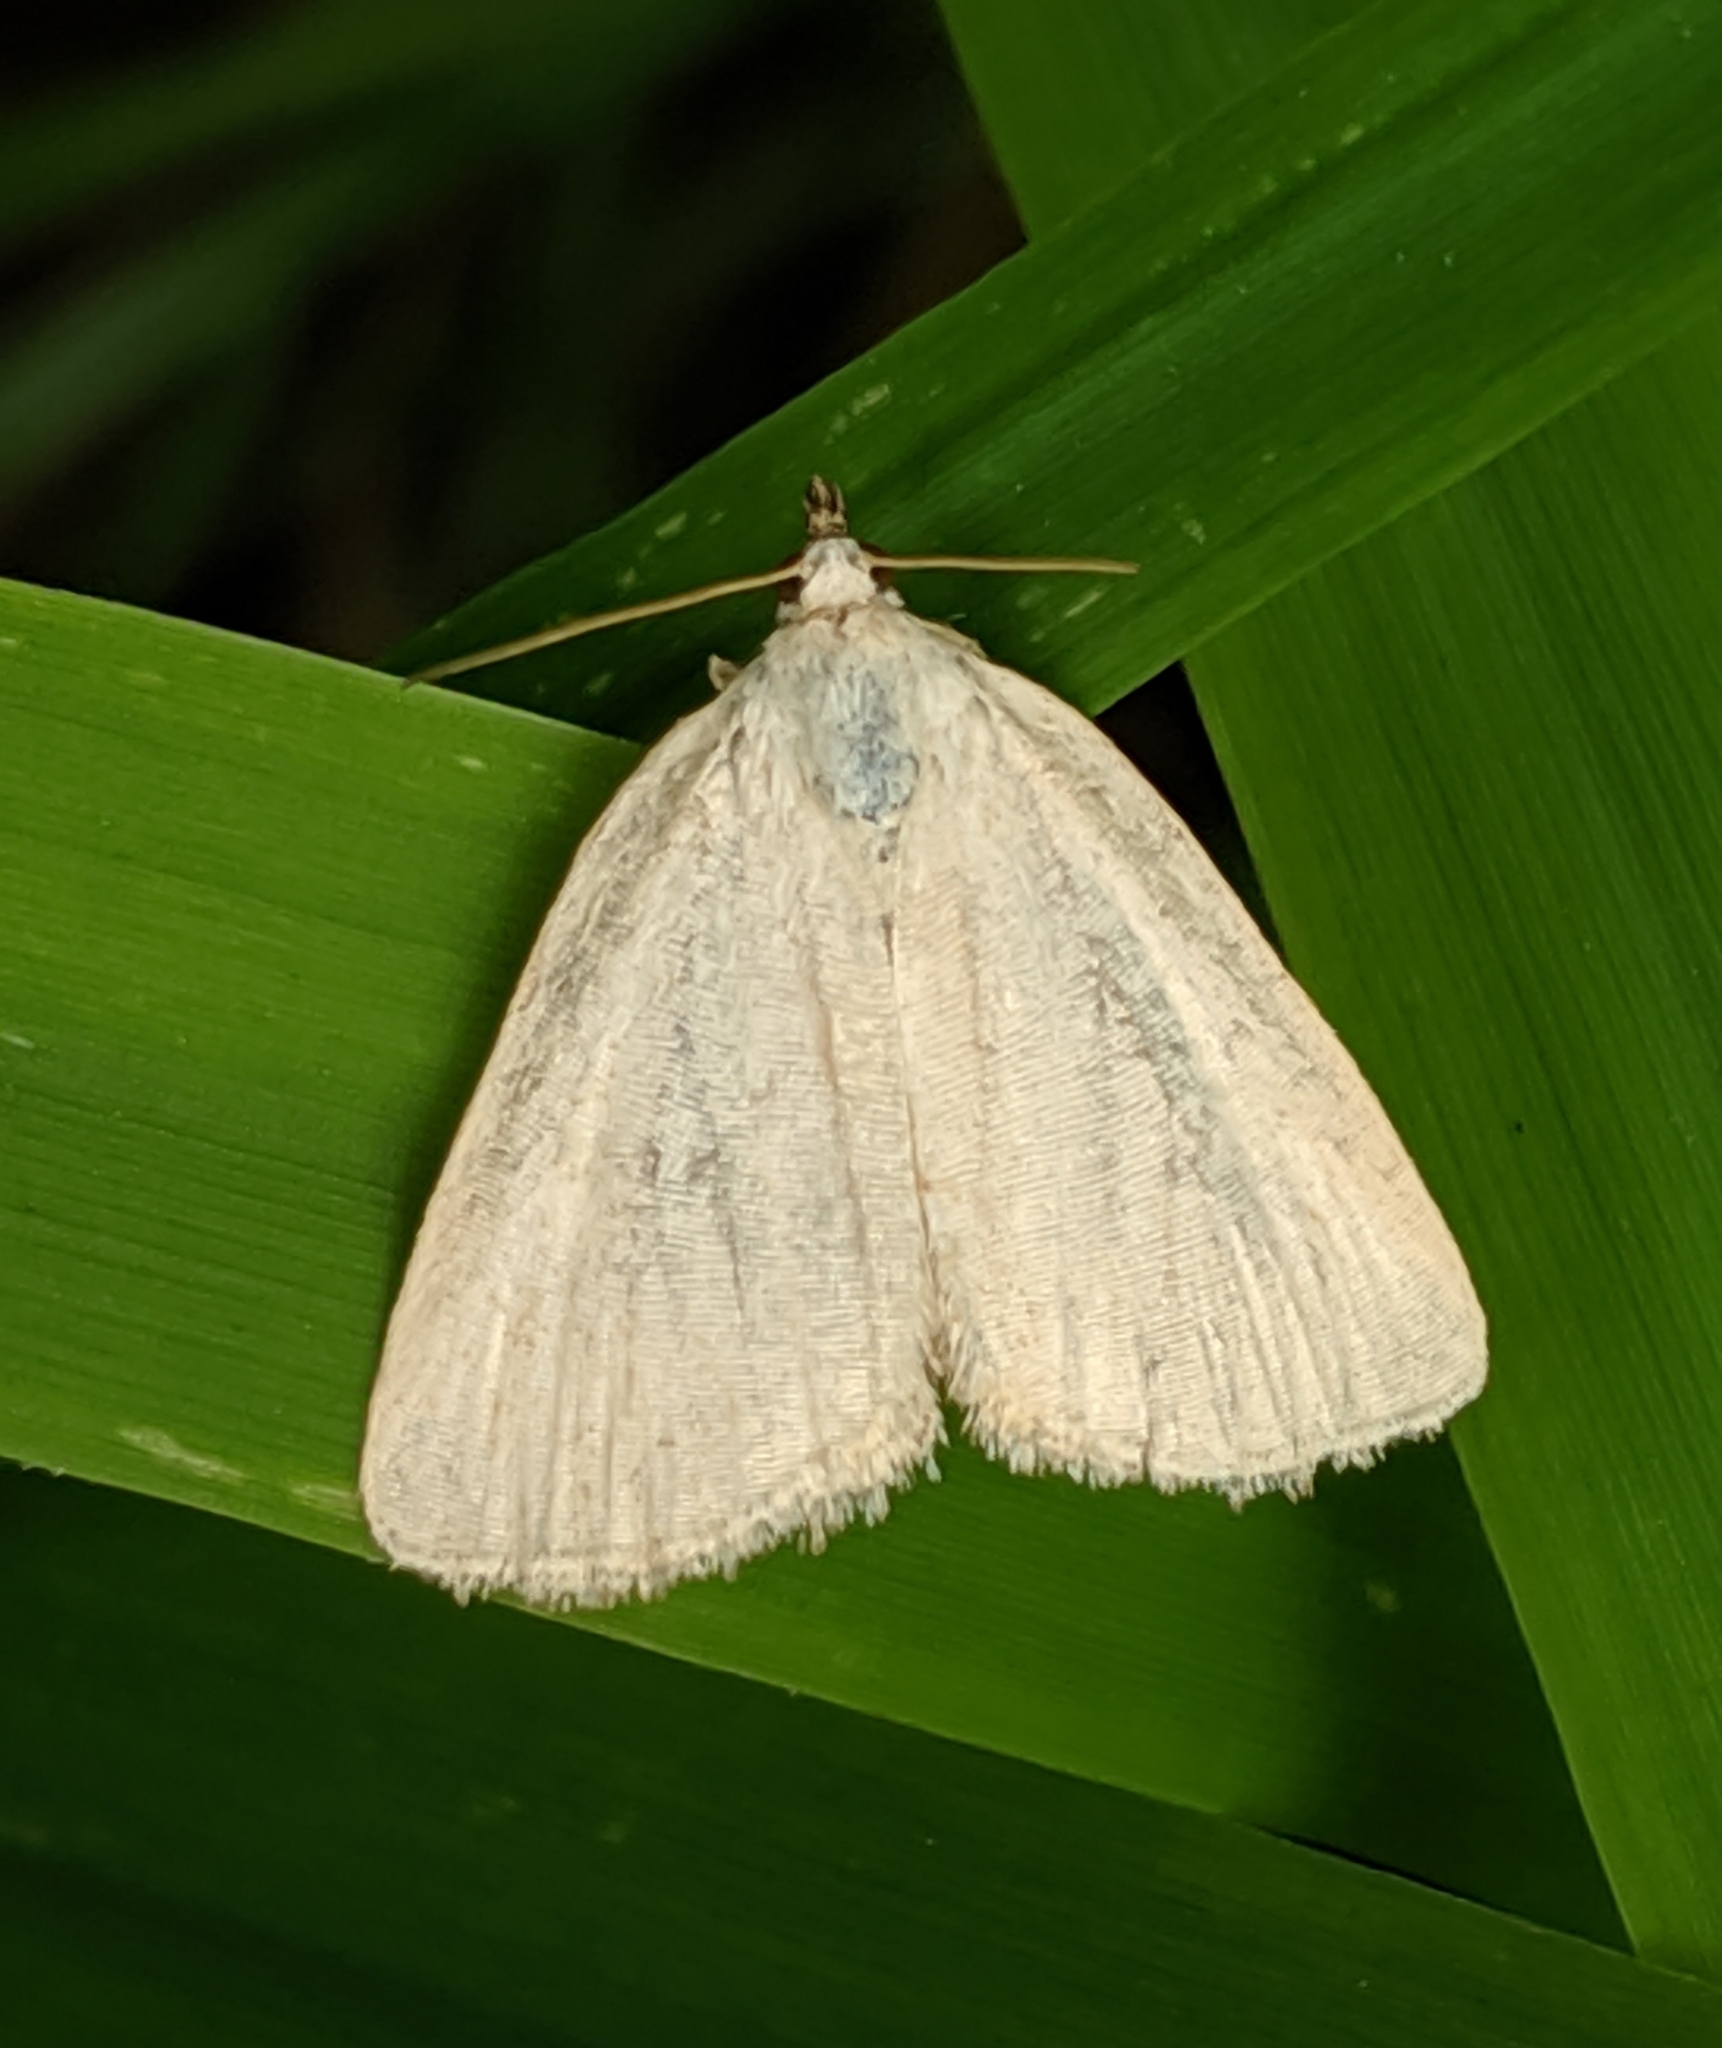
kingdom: Animalia
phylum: Arthropoda
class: Insecta
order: Lepidoptera
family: Noctuidae
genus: Protodeltote
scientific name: Protodeltote albidula
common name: Pale glyph
